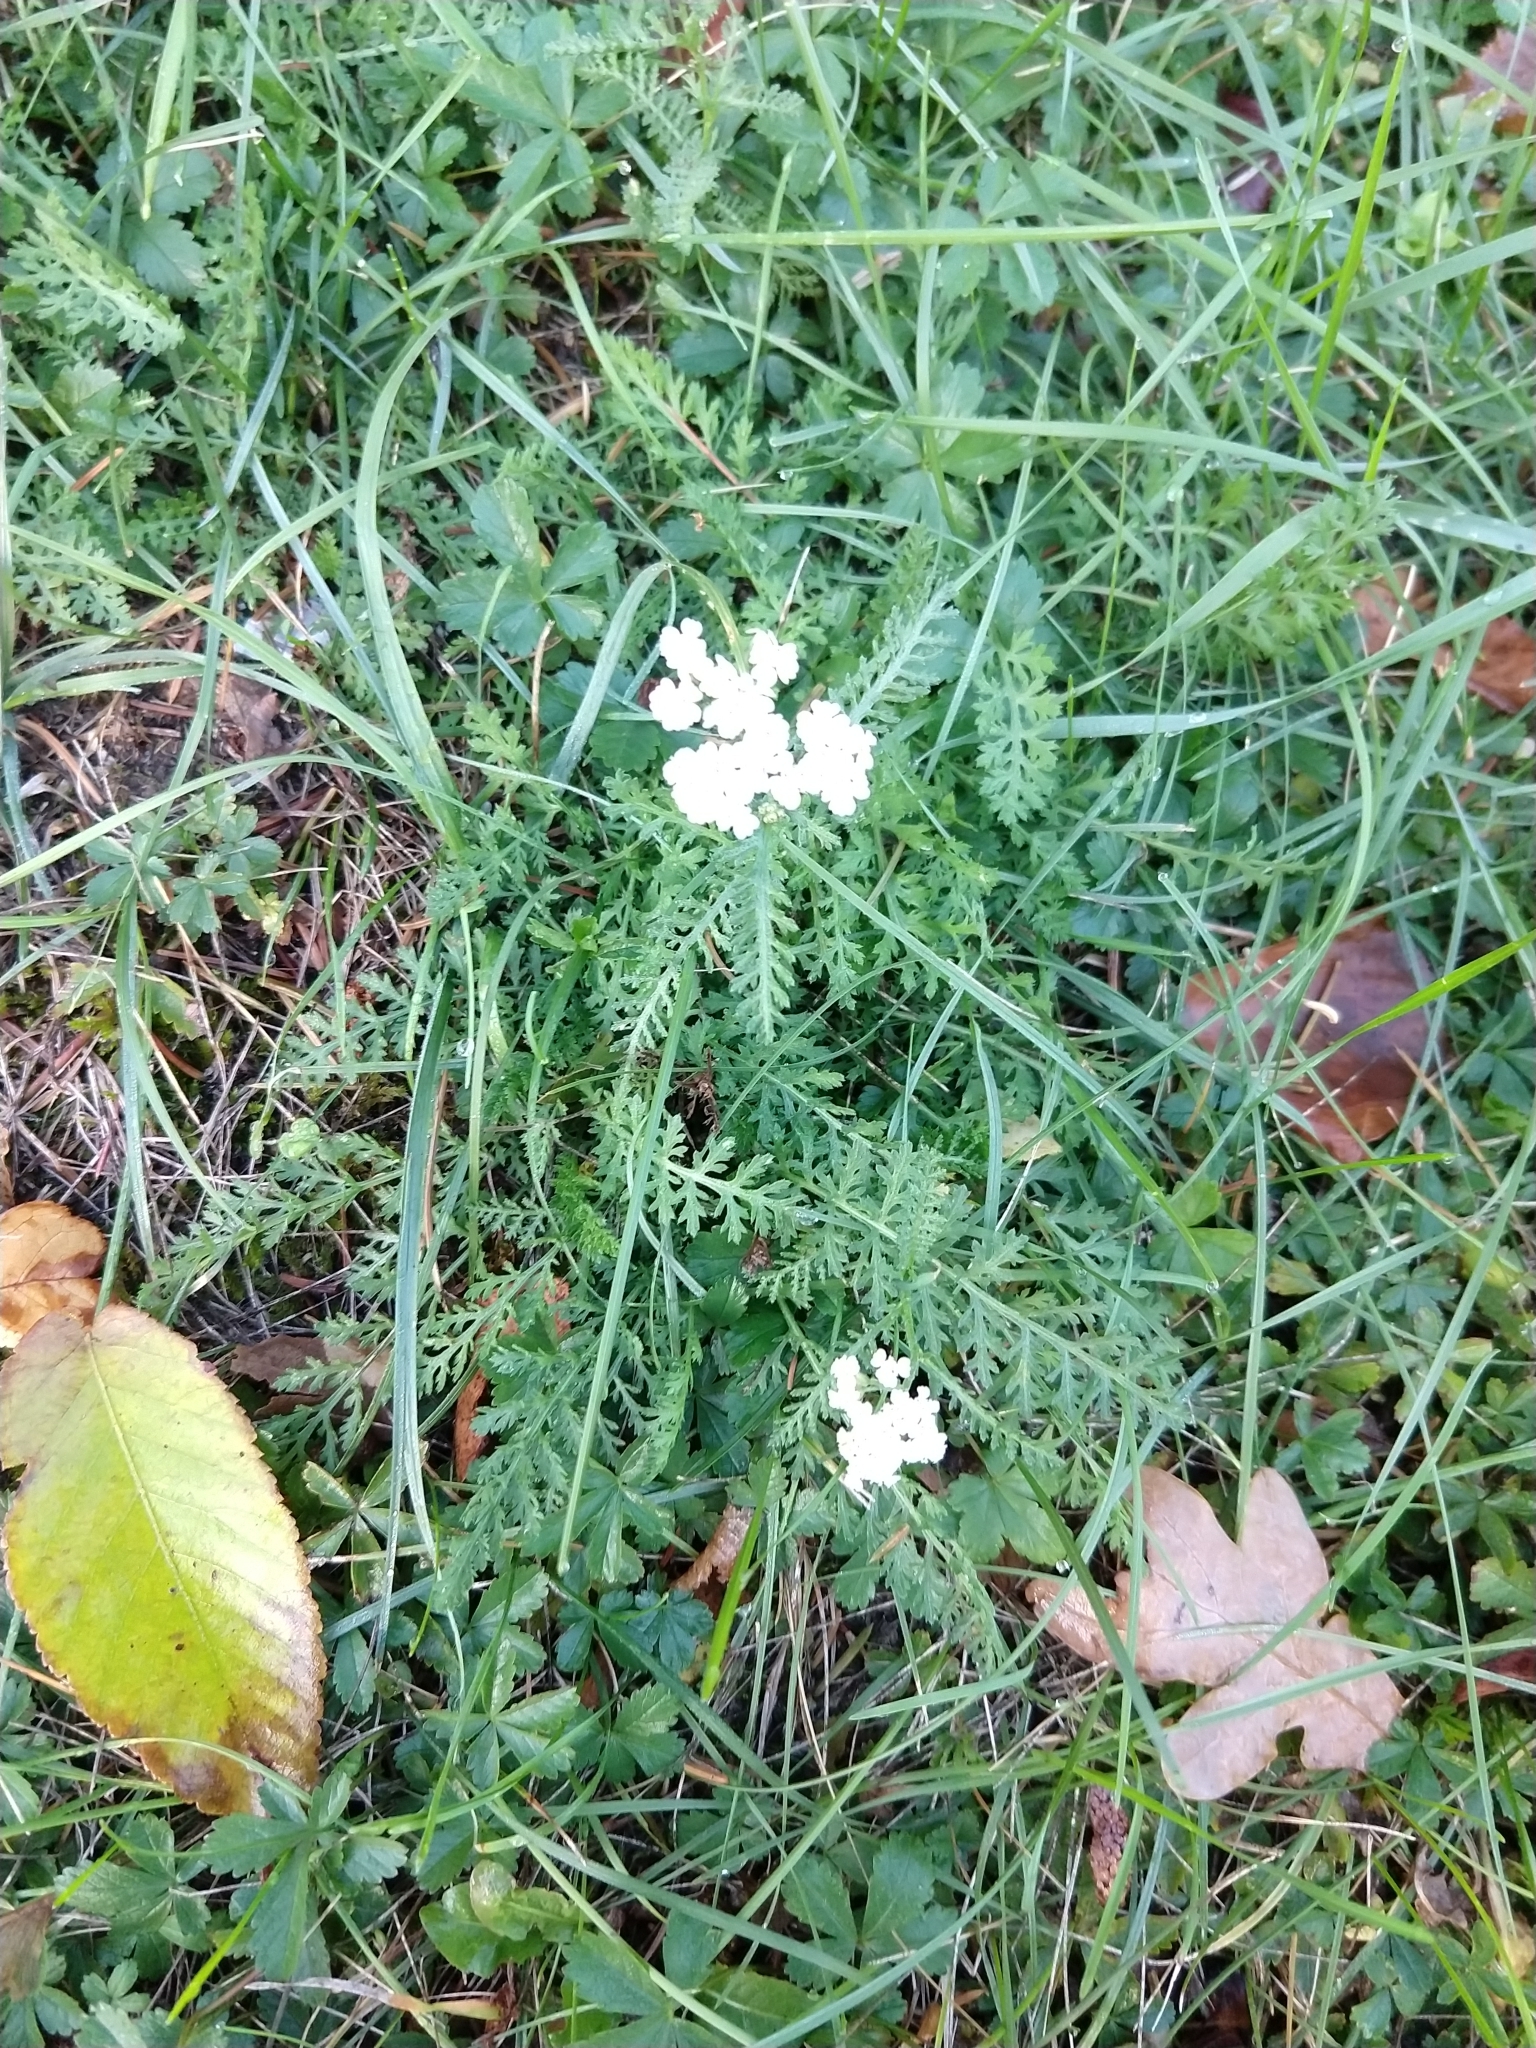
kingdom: Plantae
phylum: Tracheophyta
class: Magnoliopsida
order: Asterales
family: Asteraceae
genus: Achillea
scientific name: Achillea millefolium
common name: Yarrow
